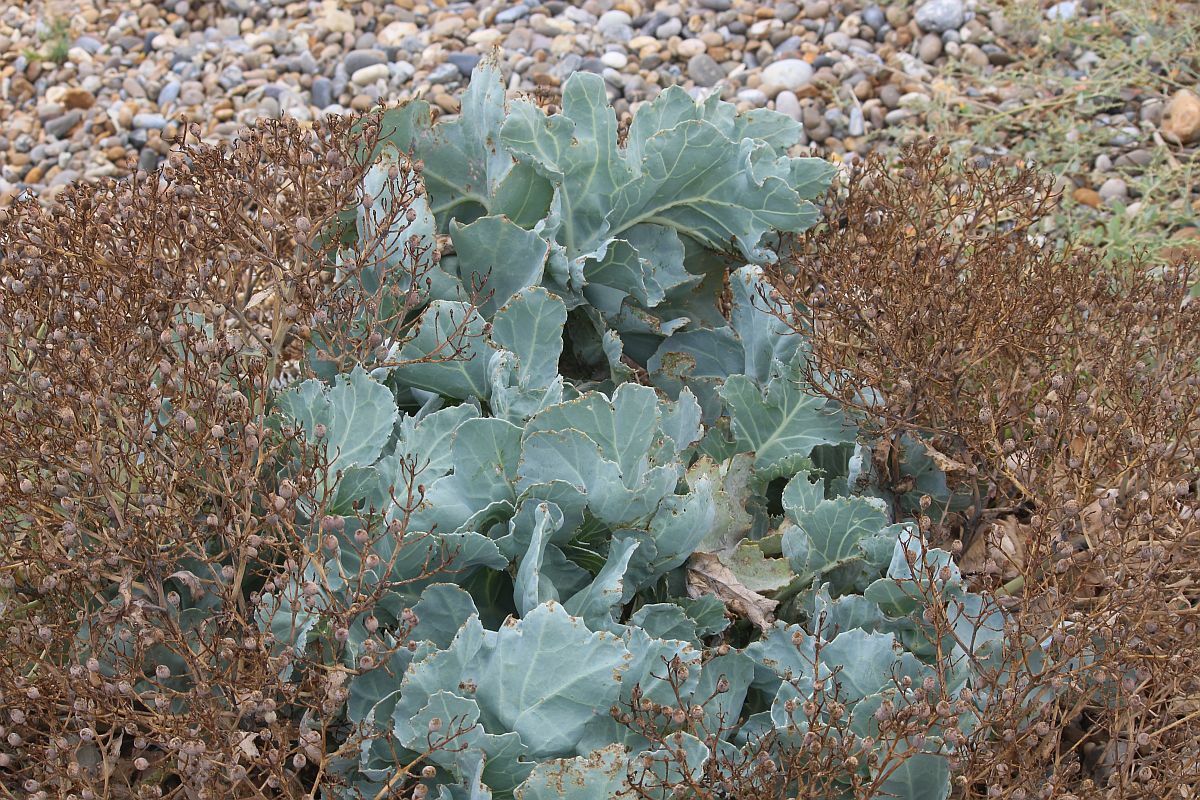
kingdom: Plantae
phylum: Tracheophyta
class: Magnoliopsida
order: Brassicales
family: Brassicaceae
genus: Crambe
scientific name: Crambe maritima
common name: Sea-kale
